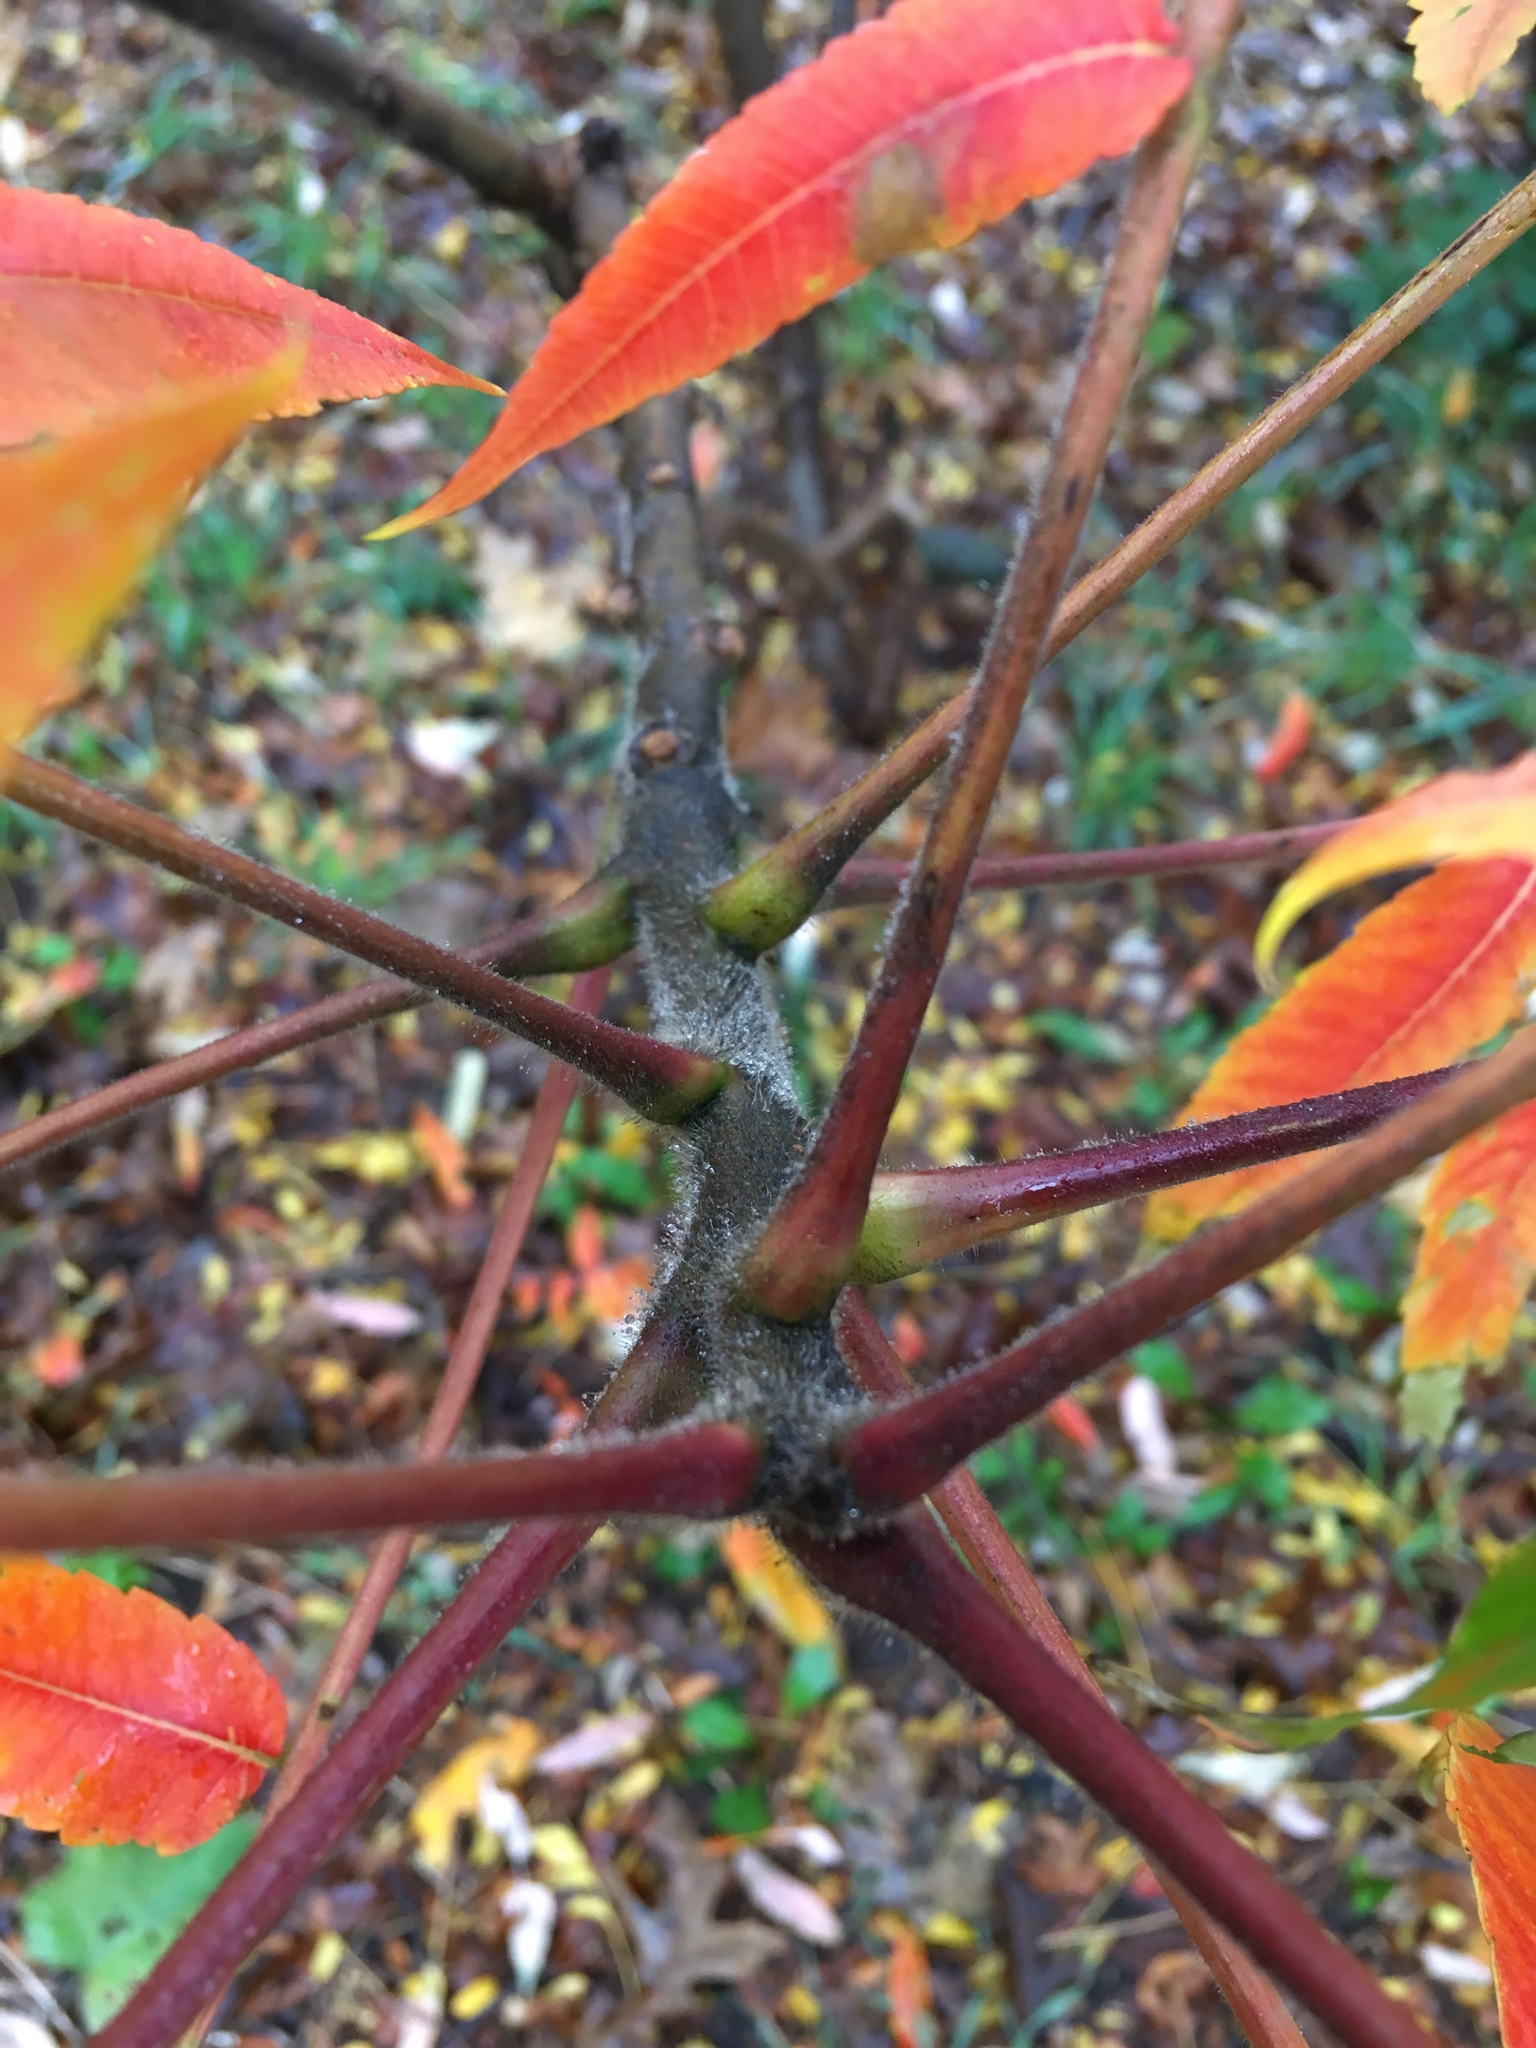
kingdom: Plantae
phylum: Tracheophyta
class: Magnoliopsida
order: Sapindales
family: Anacardiaceae
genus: Rhus
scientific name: Rhus typhina
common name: Staghorn sumac
